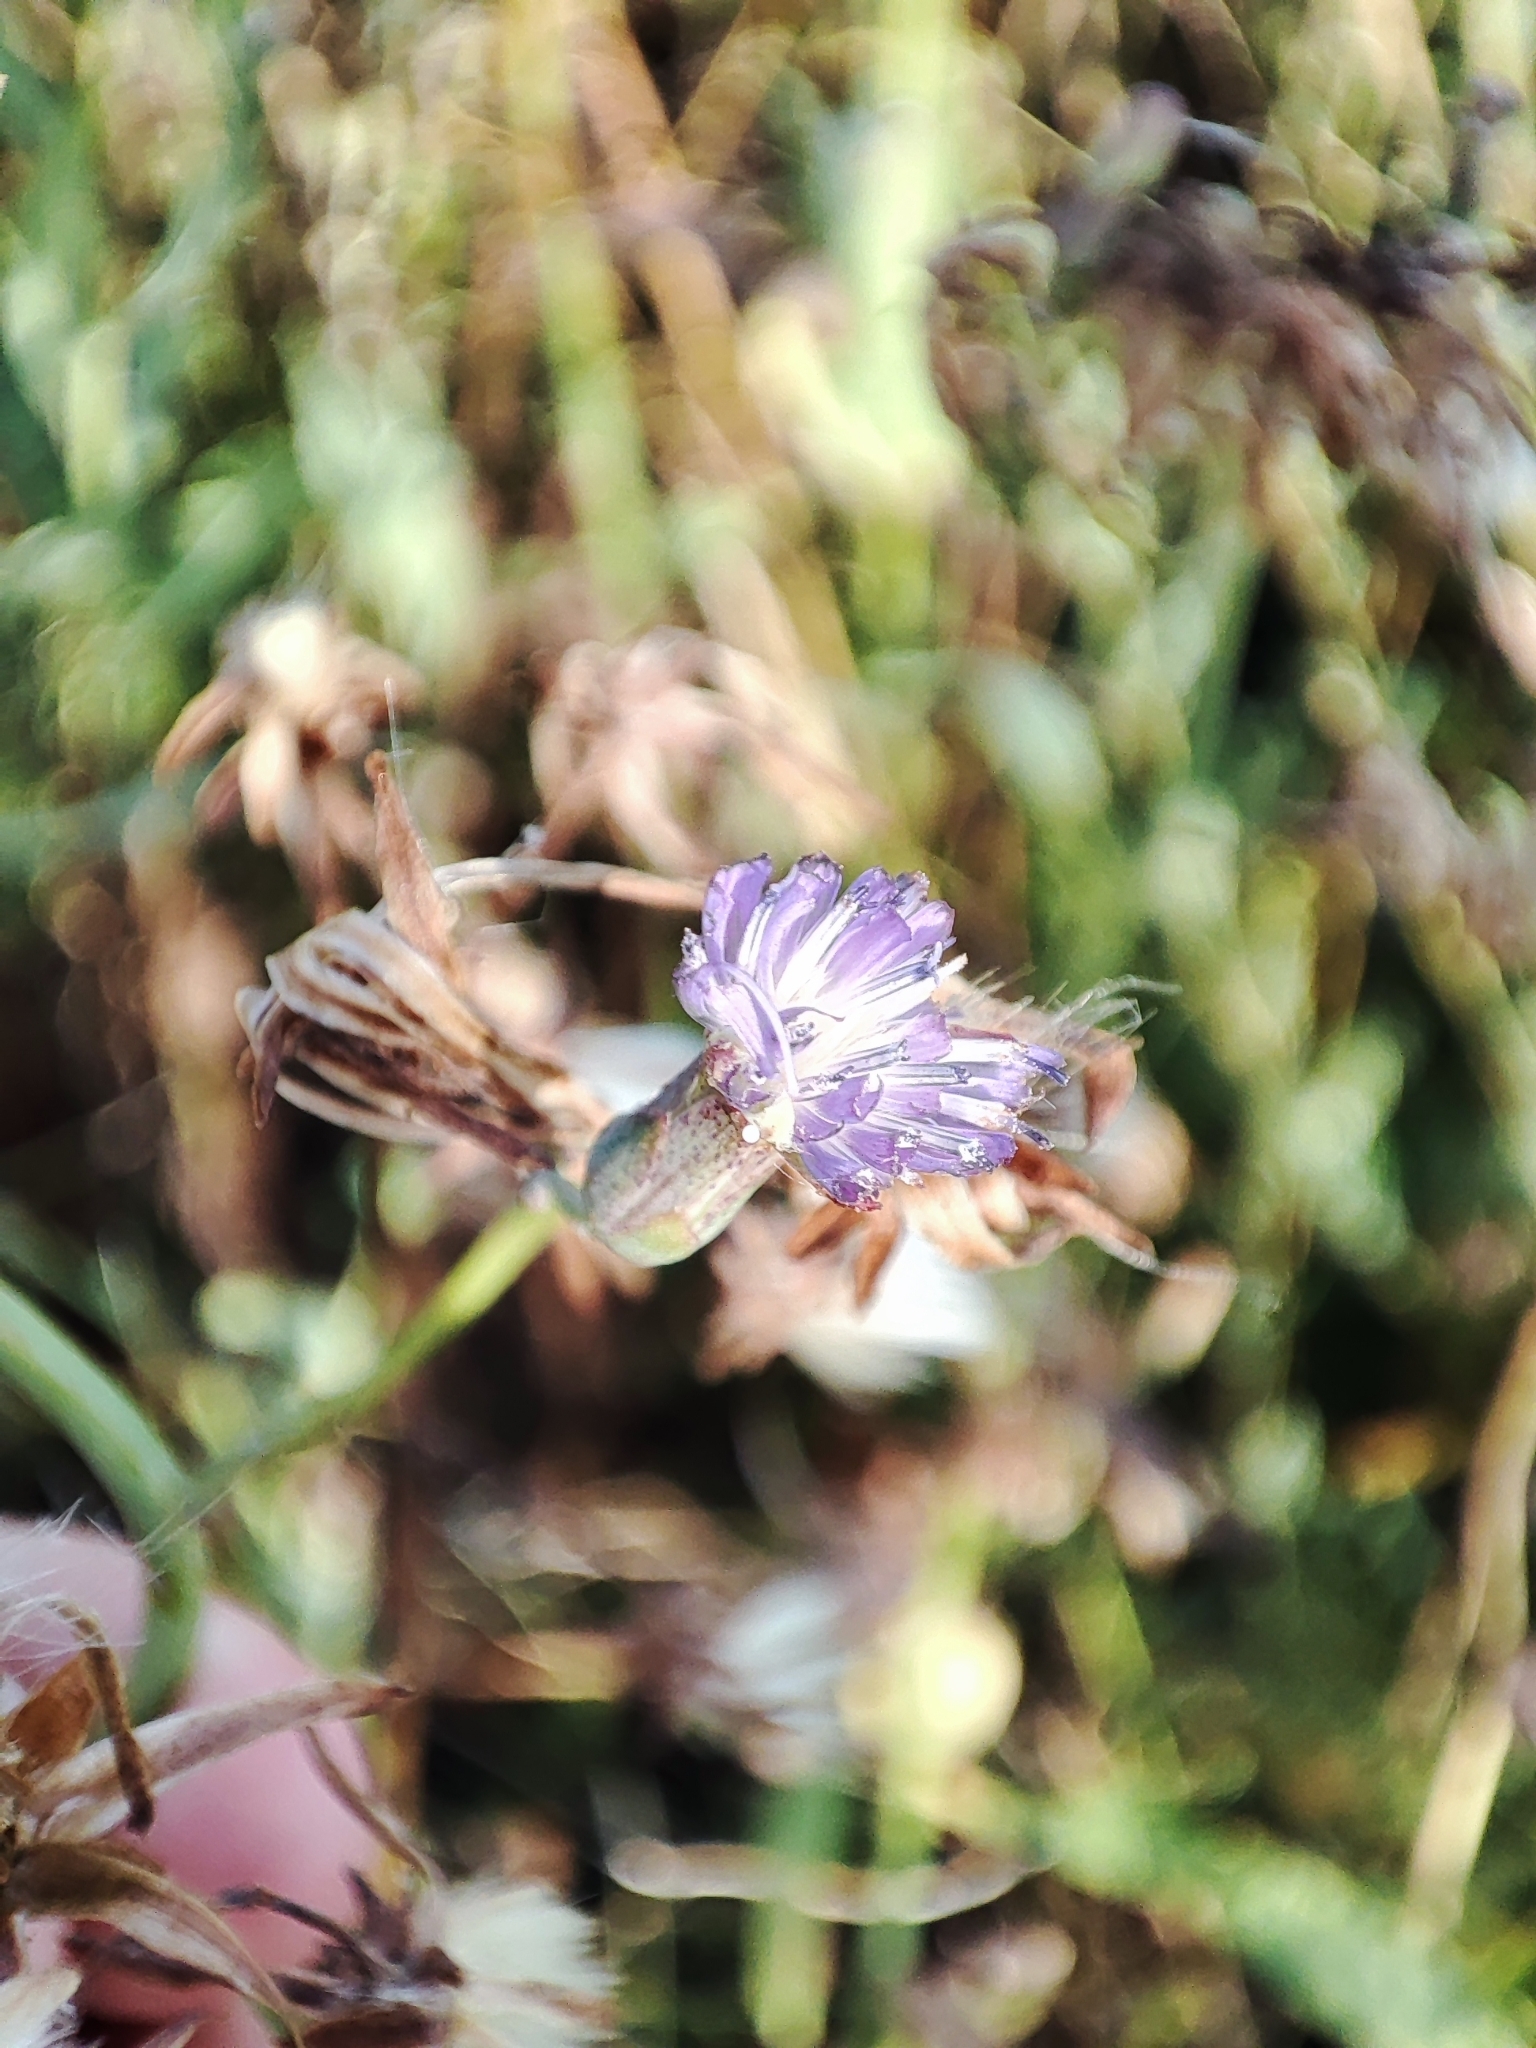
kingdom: Plantae
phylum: Tracheophyta
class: Magnoliopsida
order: Asterales
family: Asteraceae
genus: Lactuca
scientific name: Lactuca tatarica
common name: Blue lettuce
